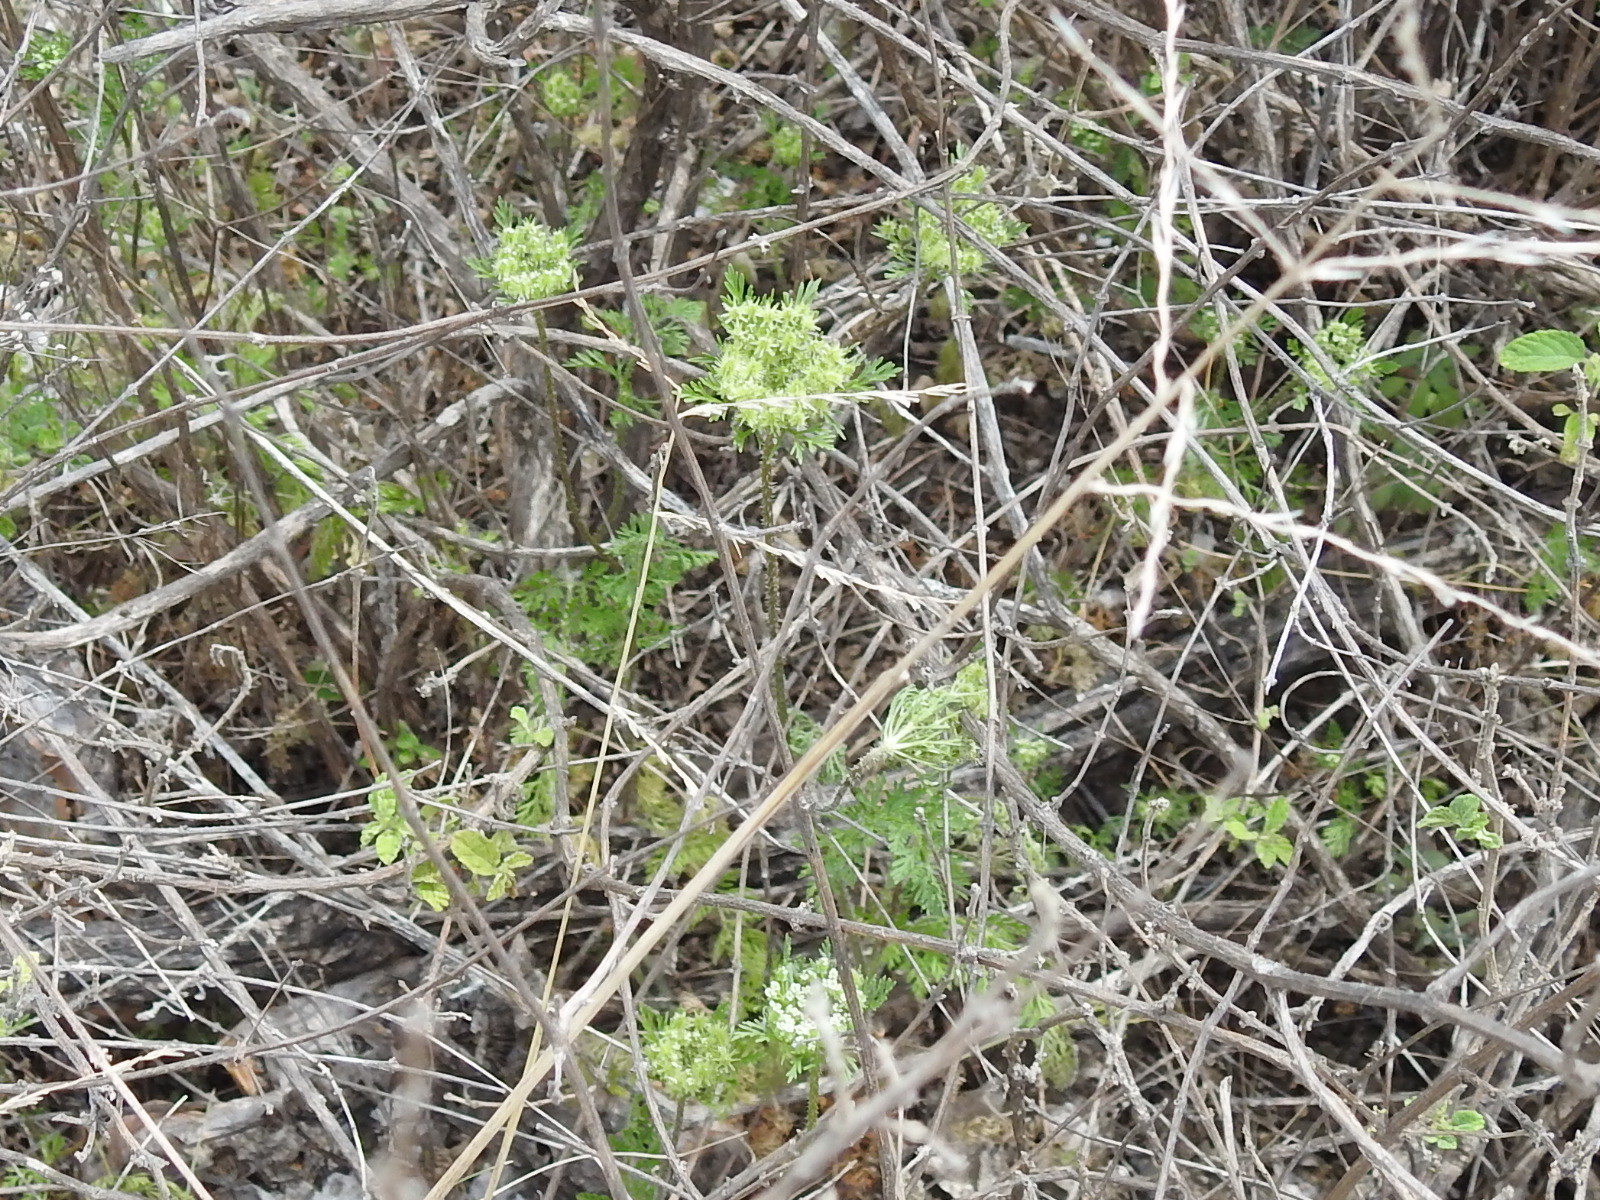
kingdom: Plantae
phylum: Tracheophyta
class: Magnoliopsida
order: Apiales
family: Apiaceae
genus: Daucus
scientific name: Daucus pusillus
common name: Southwest wild carrot
